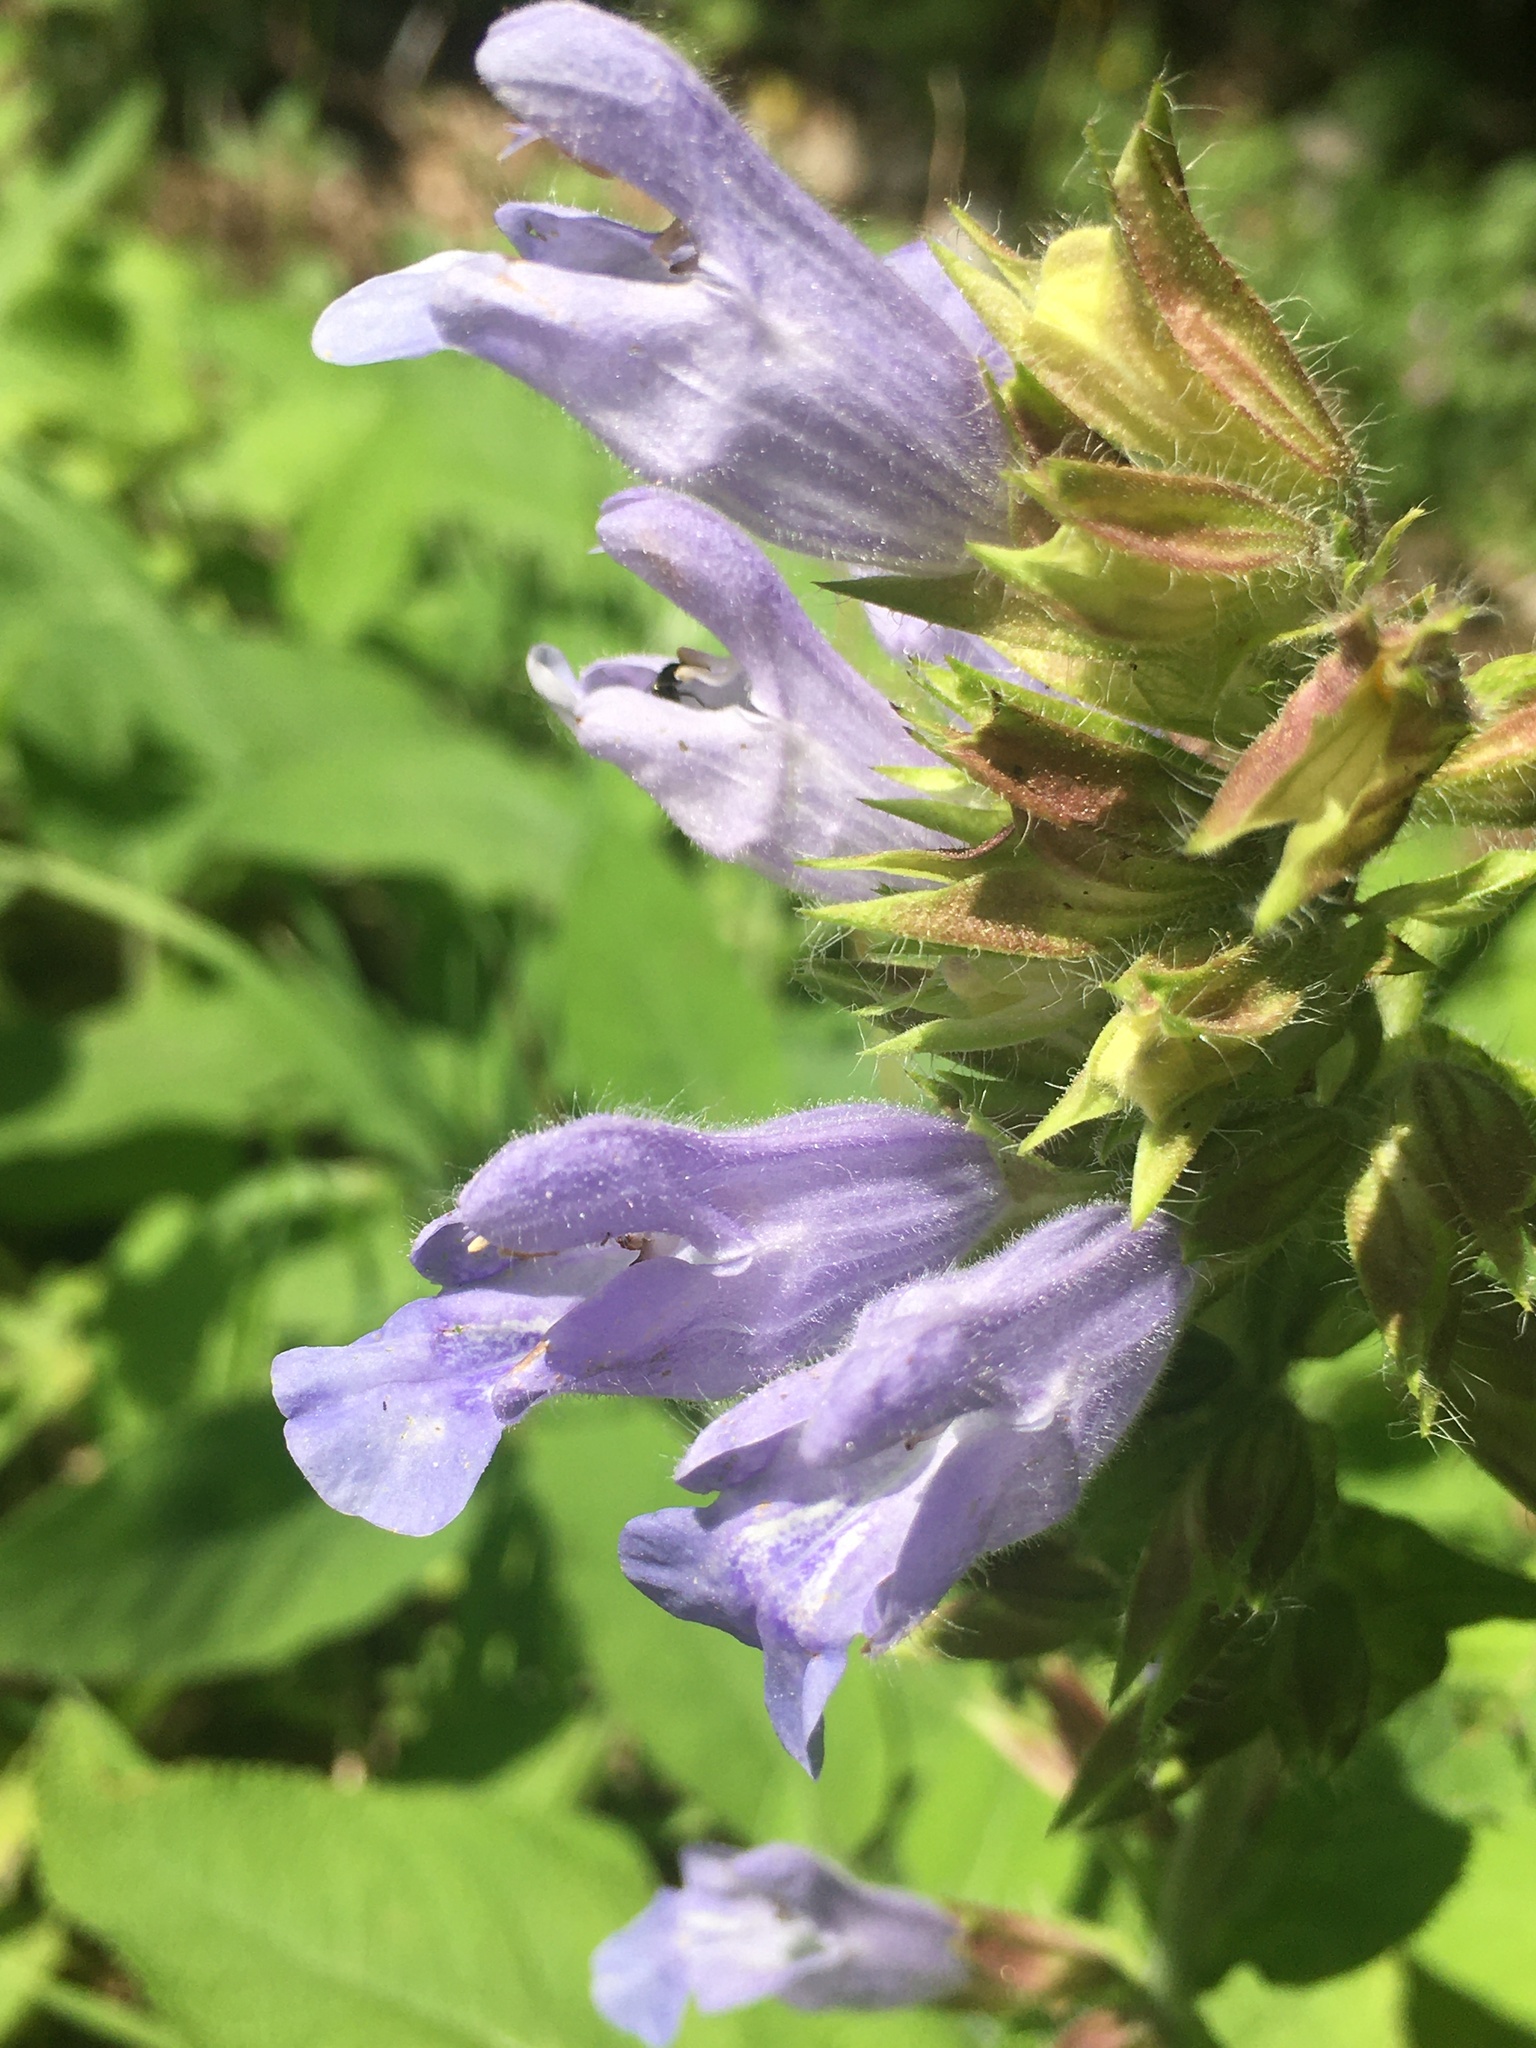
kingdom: Plantae
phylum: Tracheophyta
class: Magnoliopsida
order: Lamiales
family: Lamiaceae
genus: Salvia
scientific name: Salvia tomentosa
